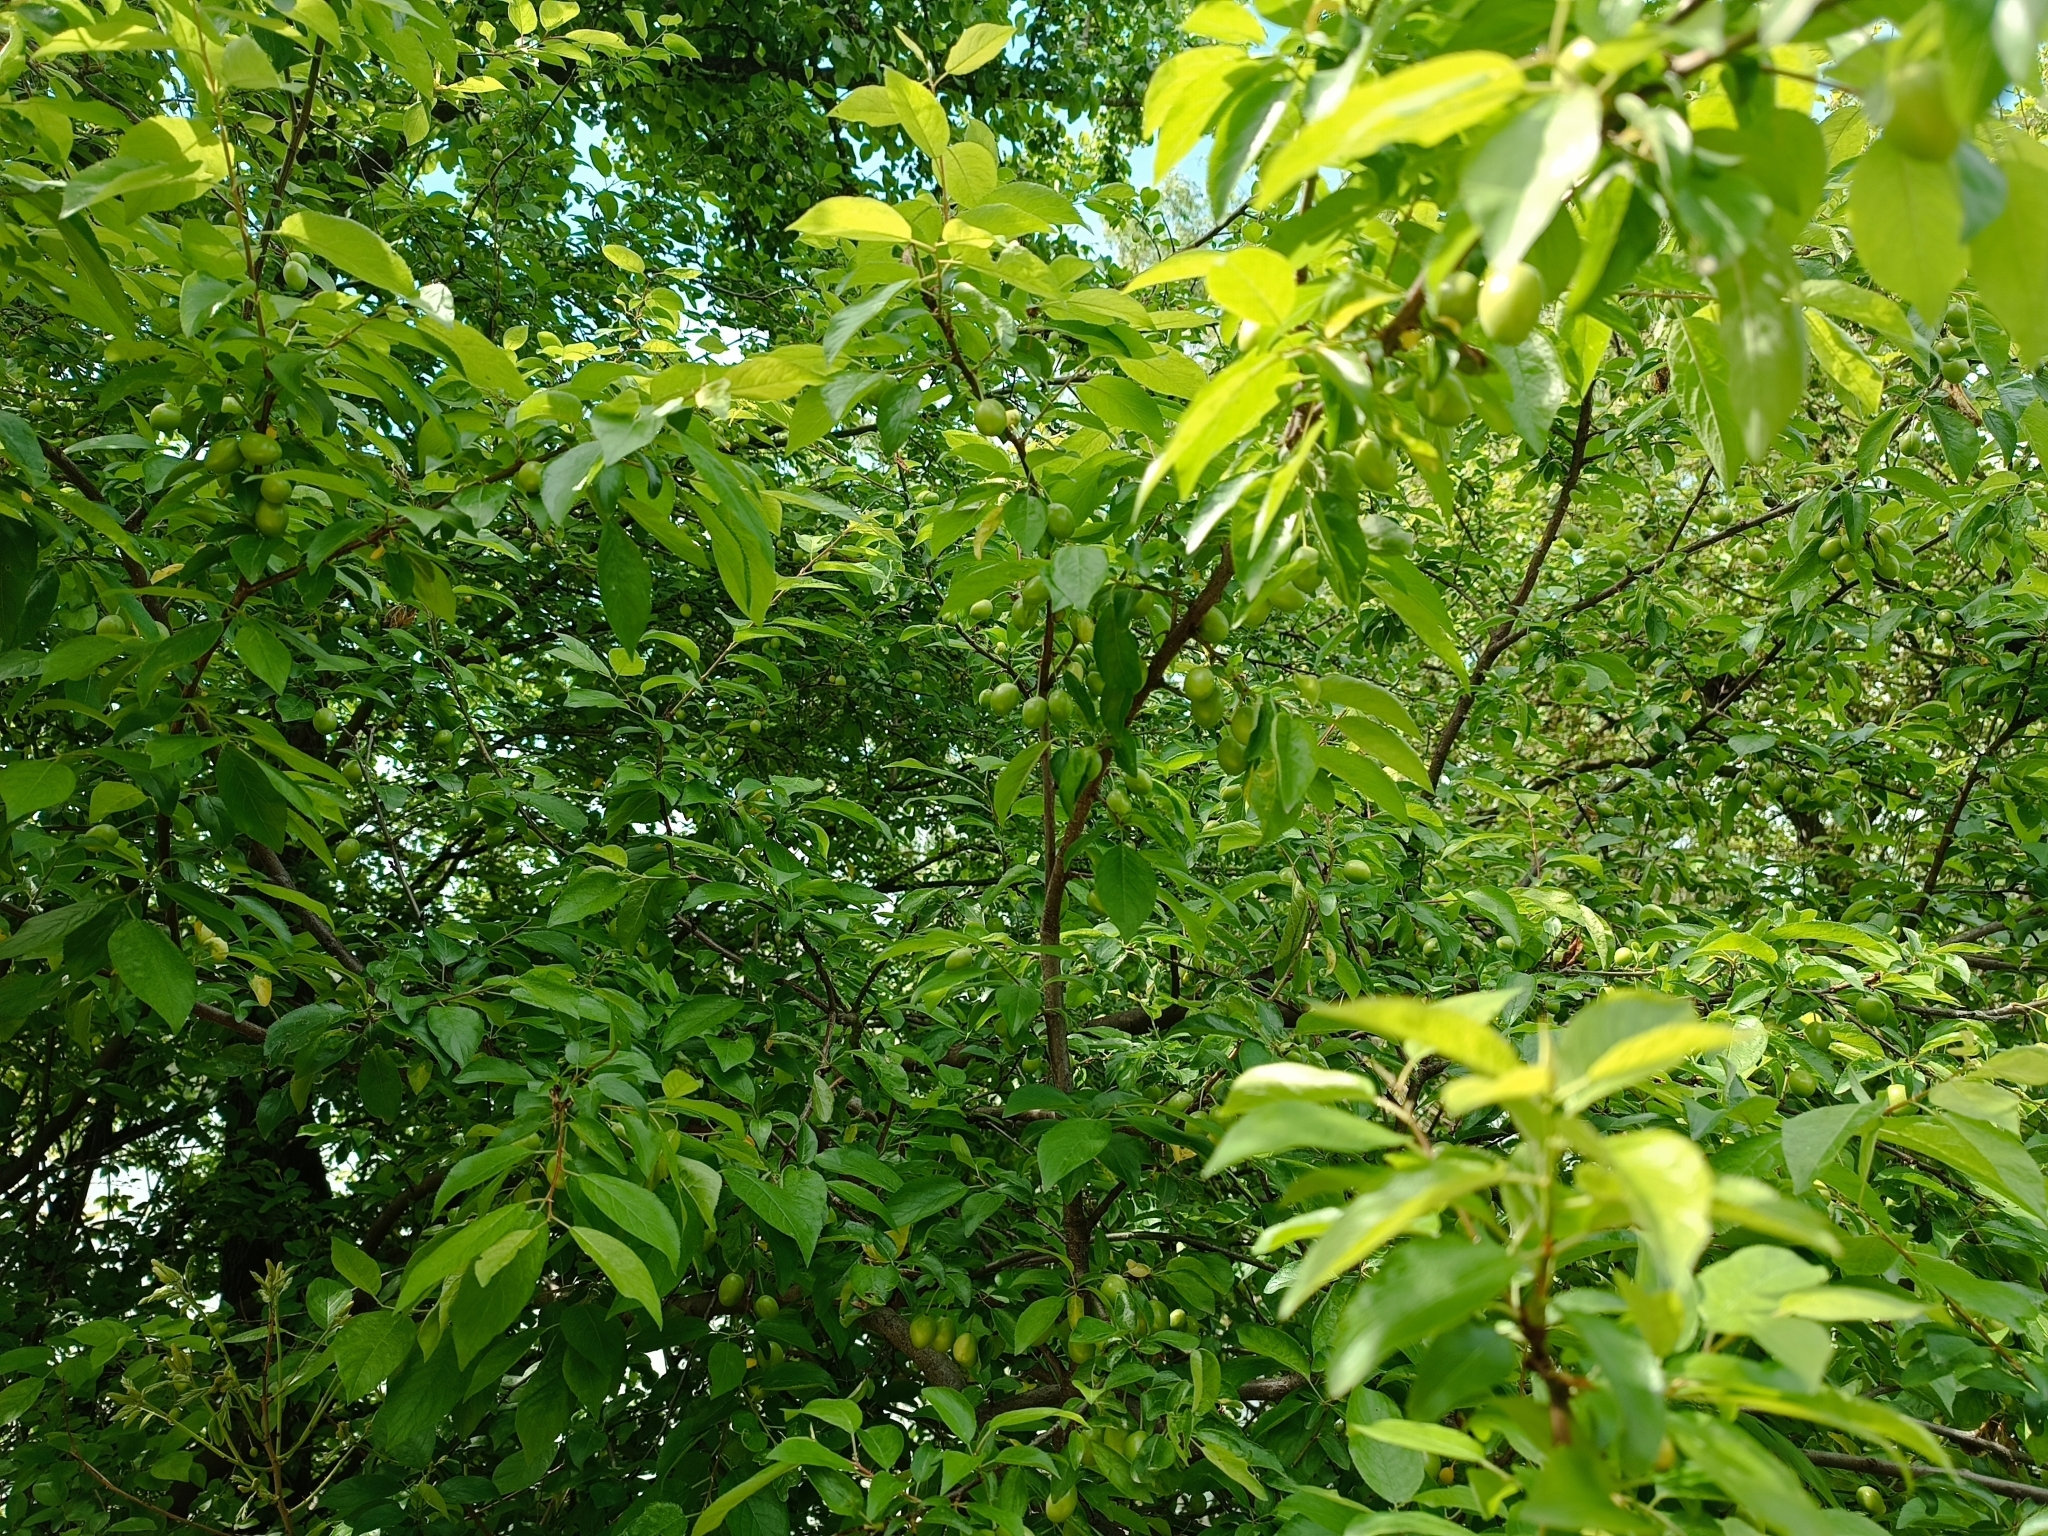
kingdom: Plantae
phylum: Tracheophyta
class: Magnoliopsida
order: Rosales
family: Rosaceae
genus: Prunus
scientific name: Prunus cerasifera
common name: Cherry plum
